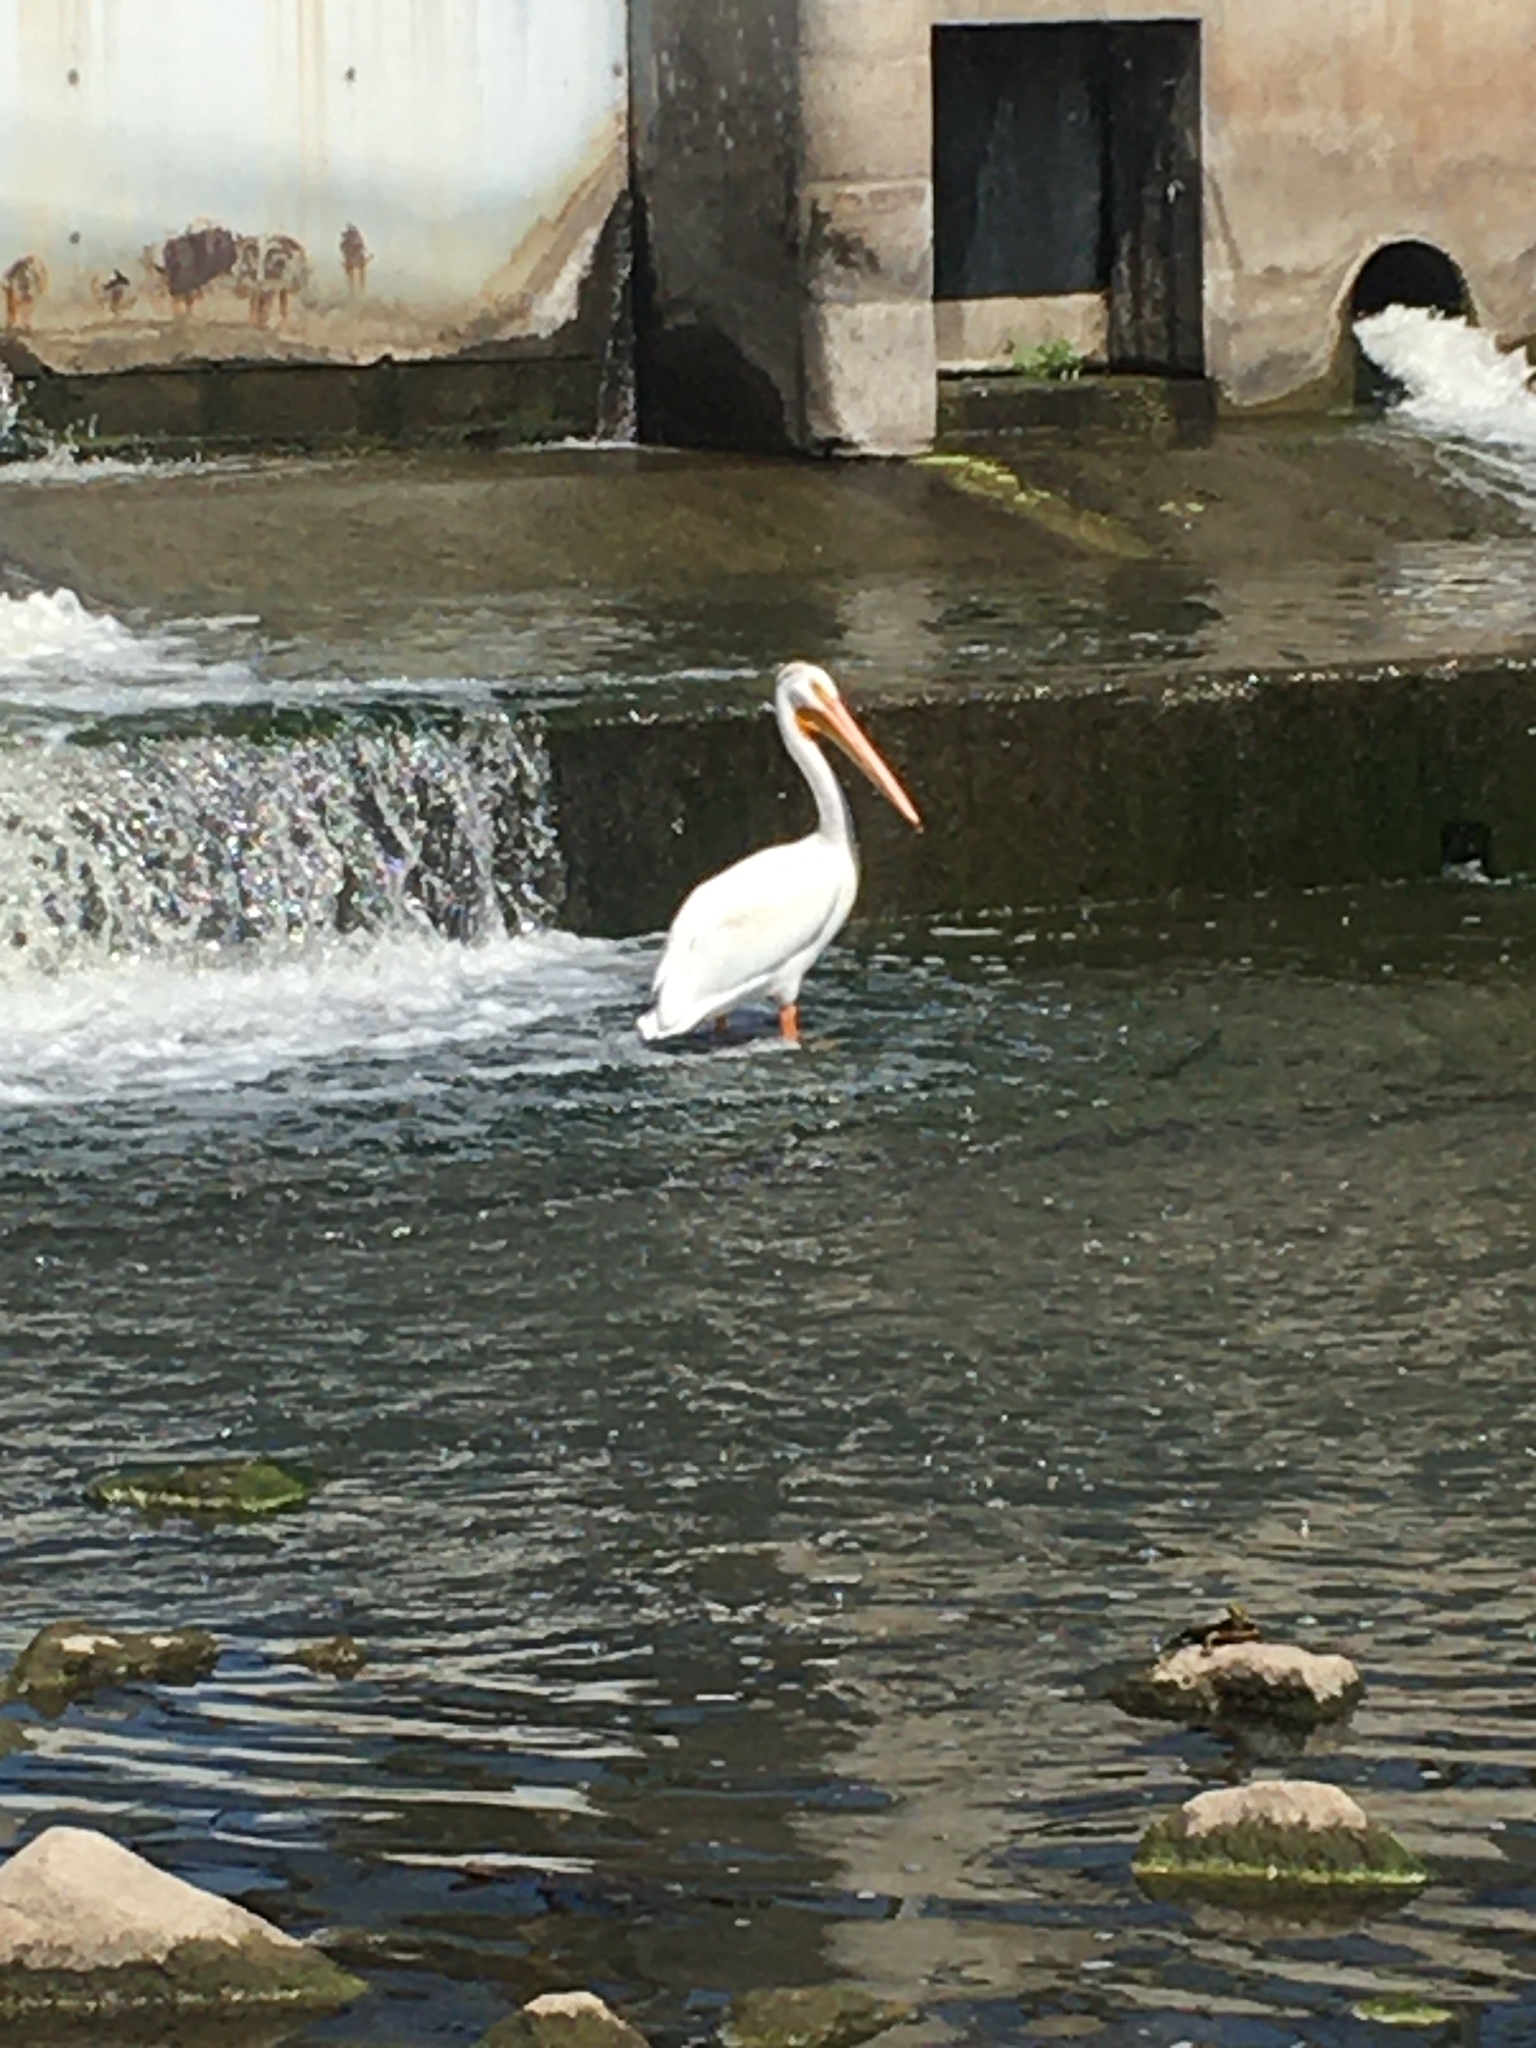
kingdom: Animalia
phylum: Chordata
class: Aves
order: Pelecaniformes
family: Pelecanidae
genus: Pelecanus
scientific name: Pelecanus erythrorhynchos
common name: American white pelican
